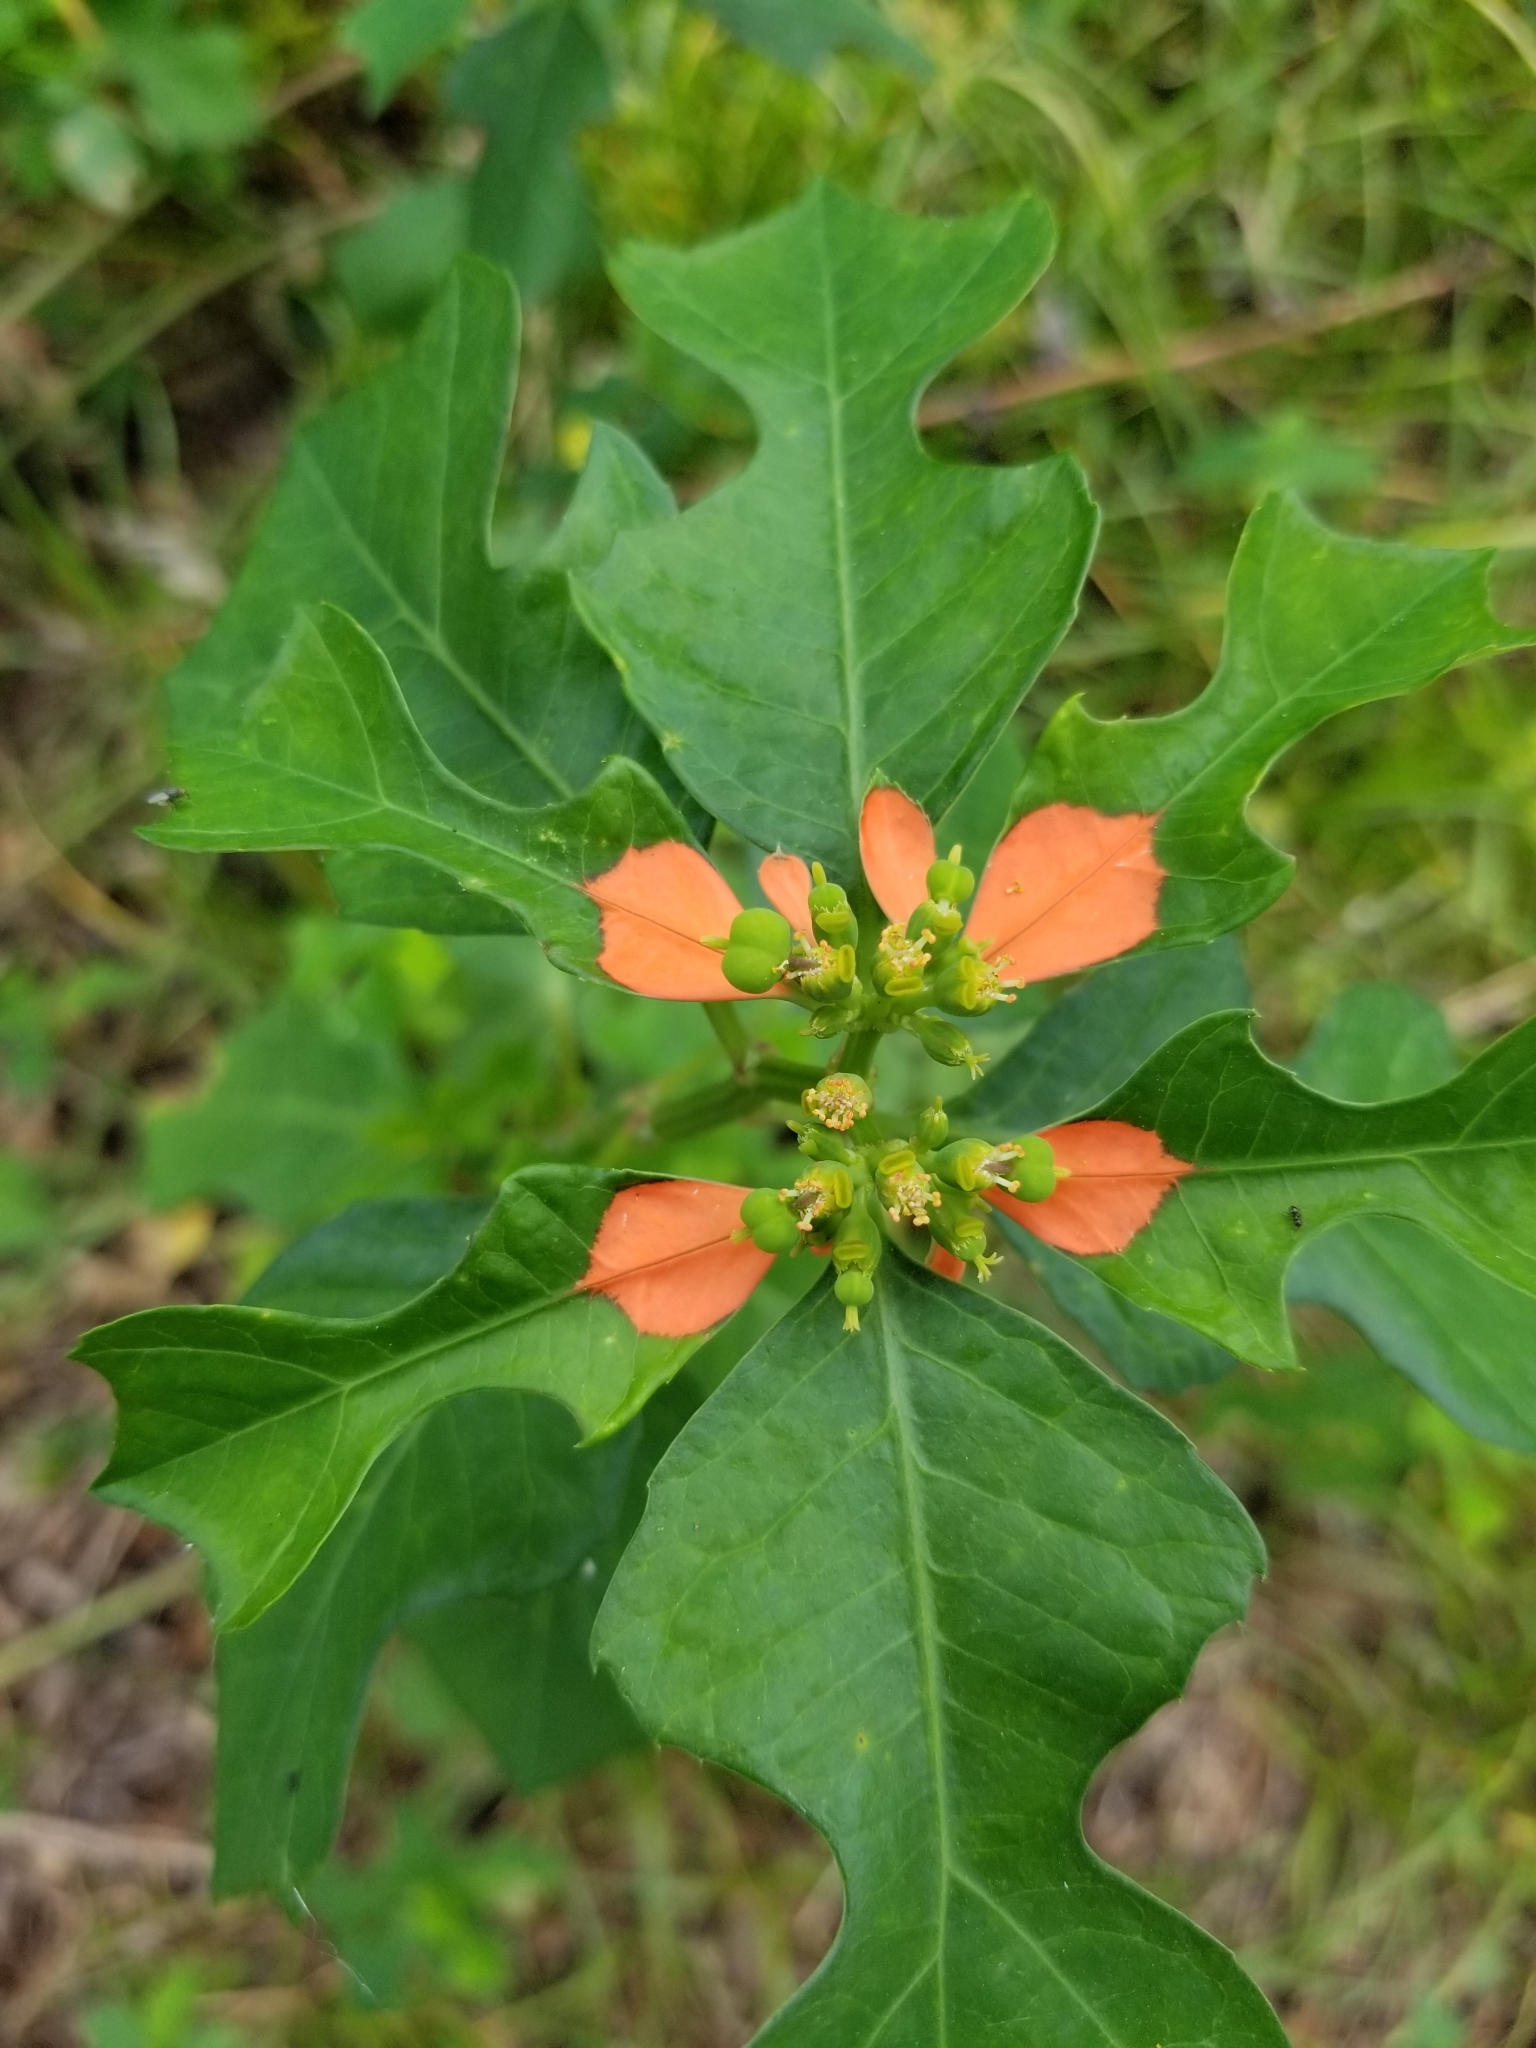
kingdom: Plantae
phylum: Tracheophyta
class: Magnoliopsida
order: Malpighiales
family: Euphorbiaceae
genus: Euphorbia
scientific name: Euphorbia heterophylla
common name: Mexican fireplant
